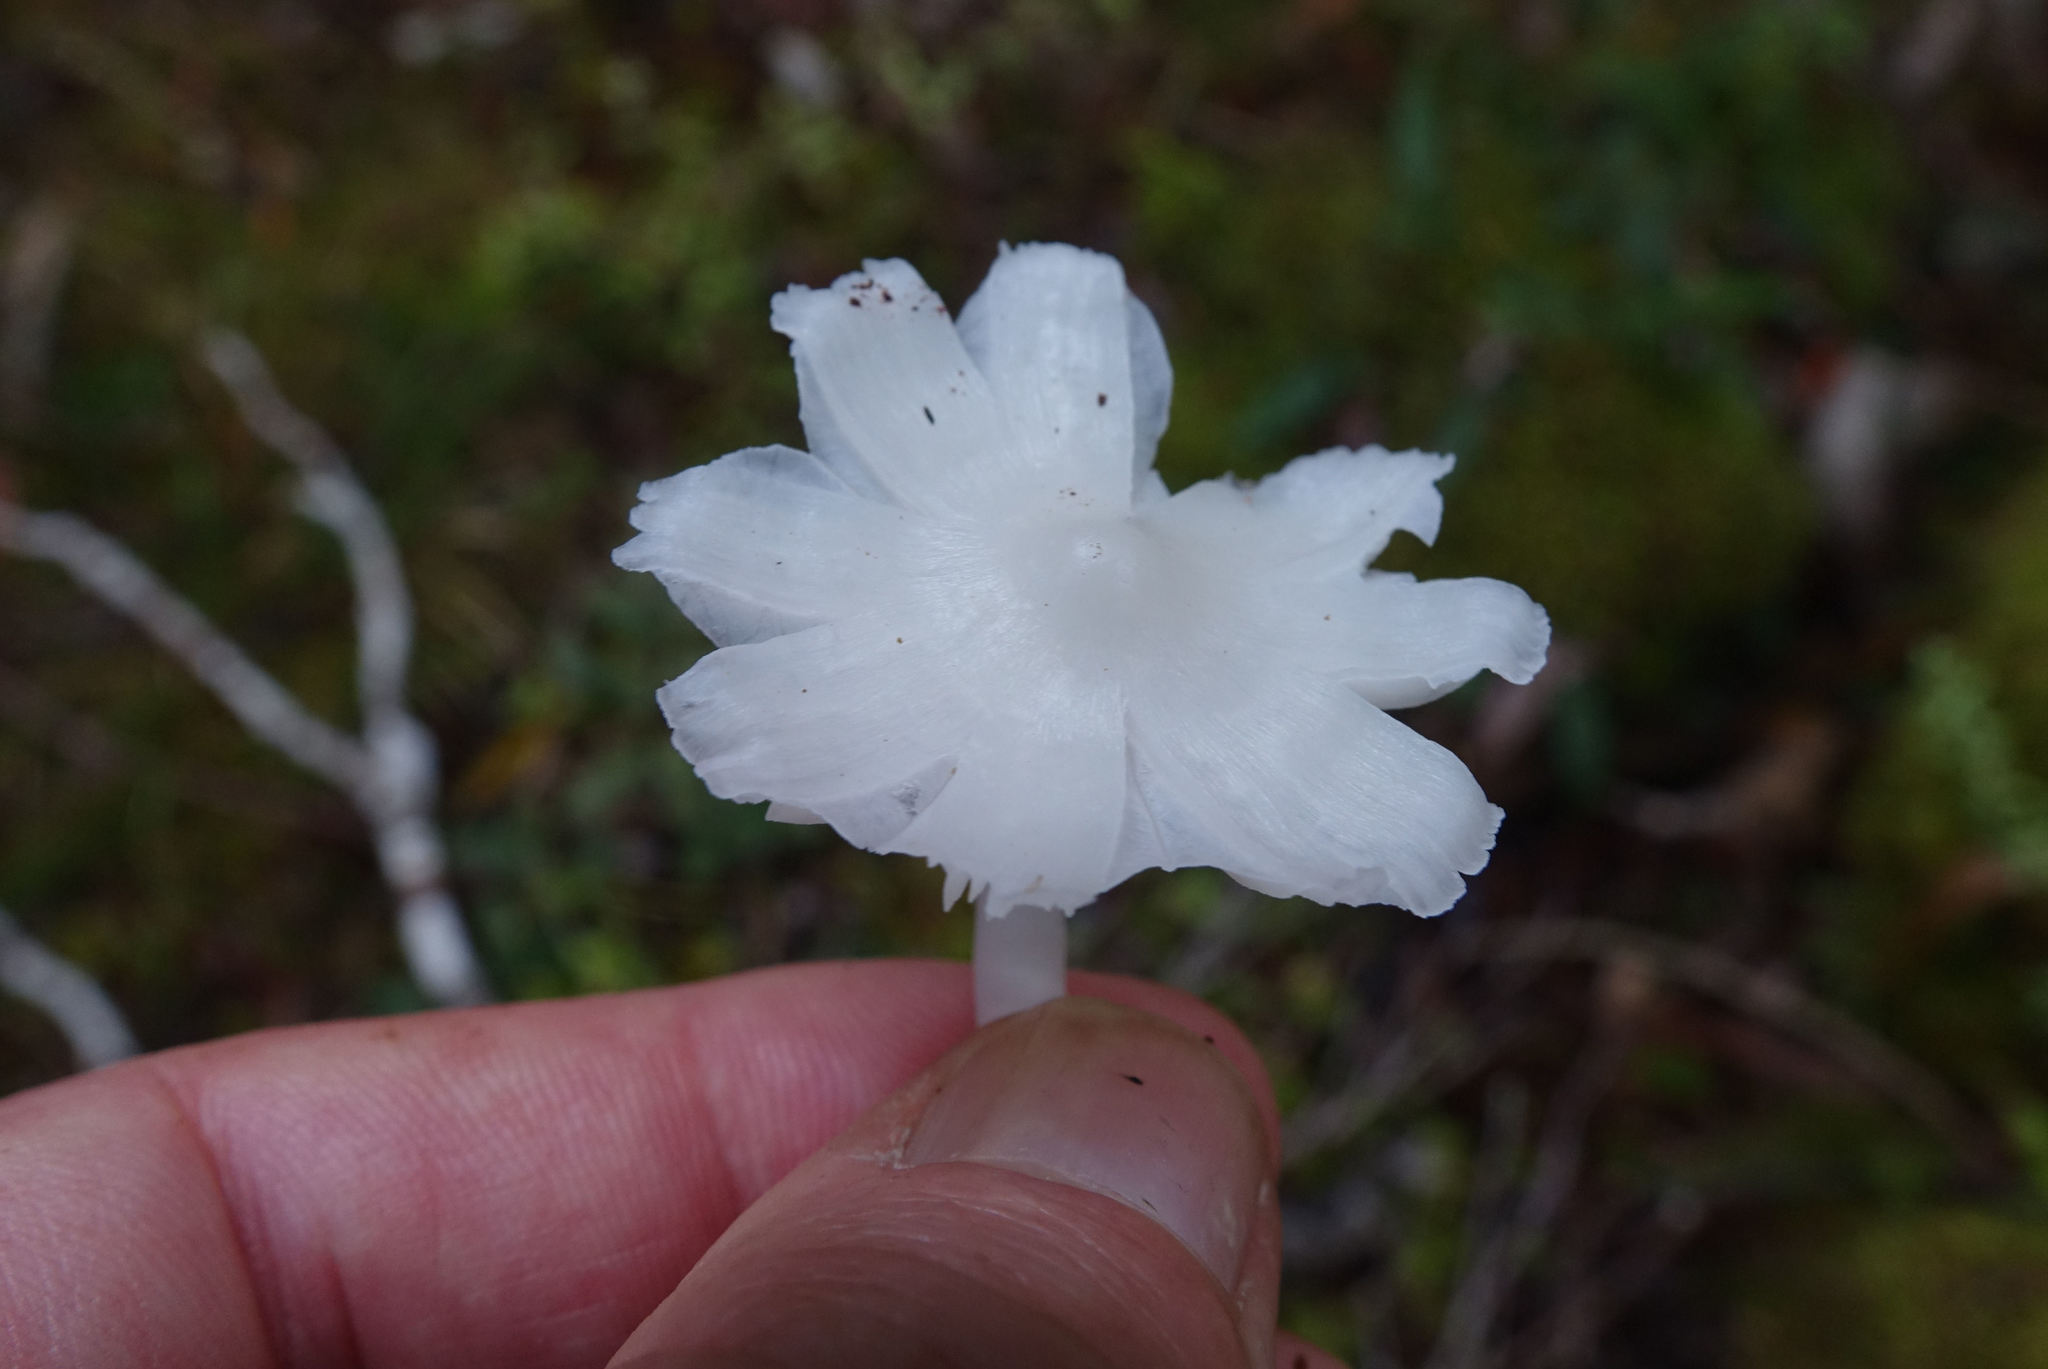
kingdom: Fungi
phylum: Basidiomycota
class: Agaricomycetes
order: Agaricales
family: Hygrophoraceae
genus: Humidicutis
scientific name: Humidicutis mavis
